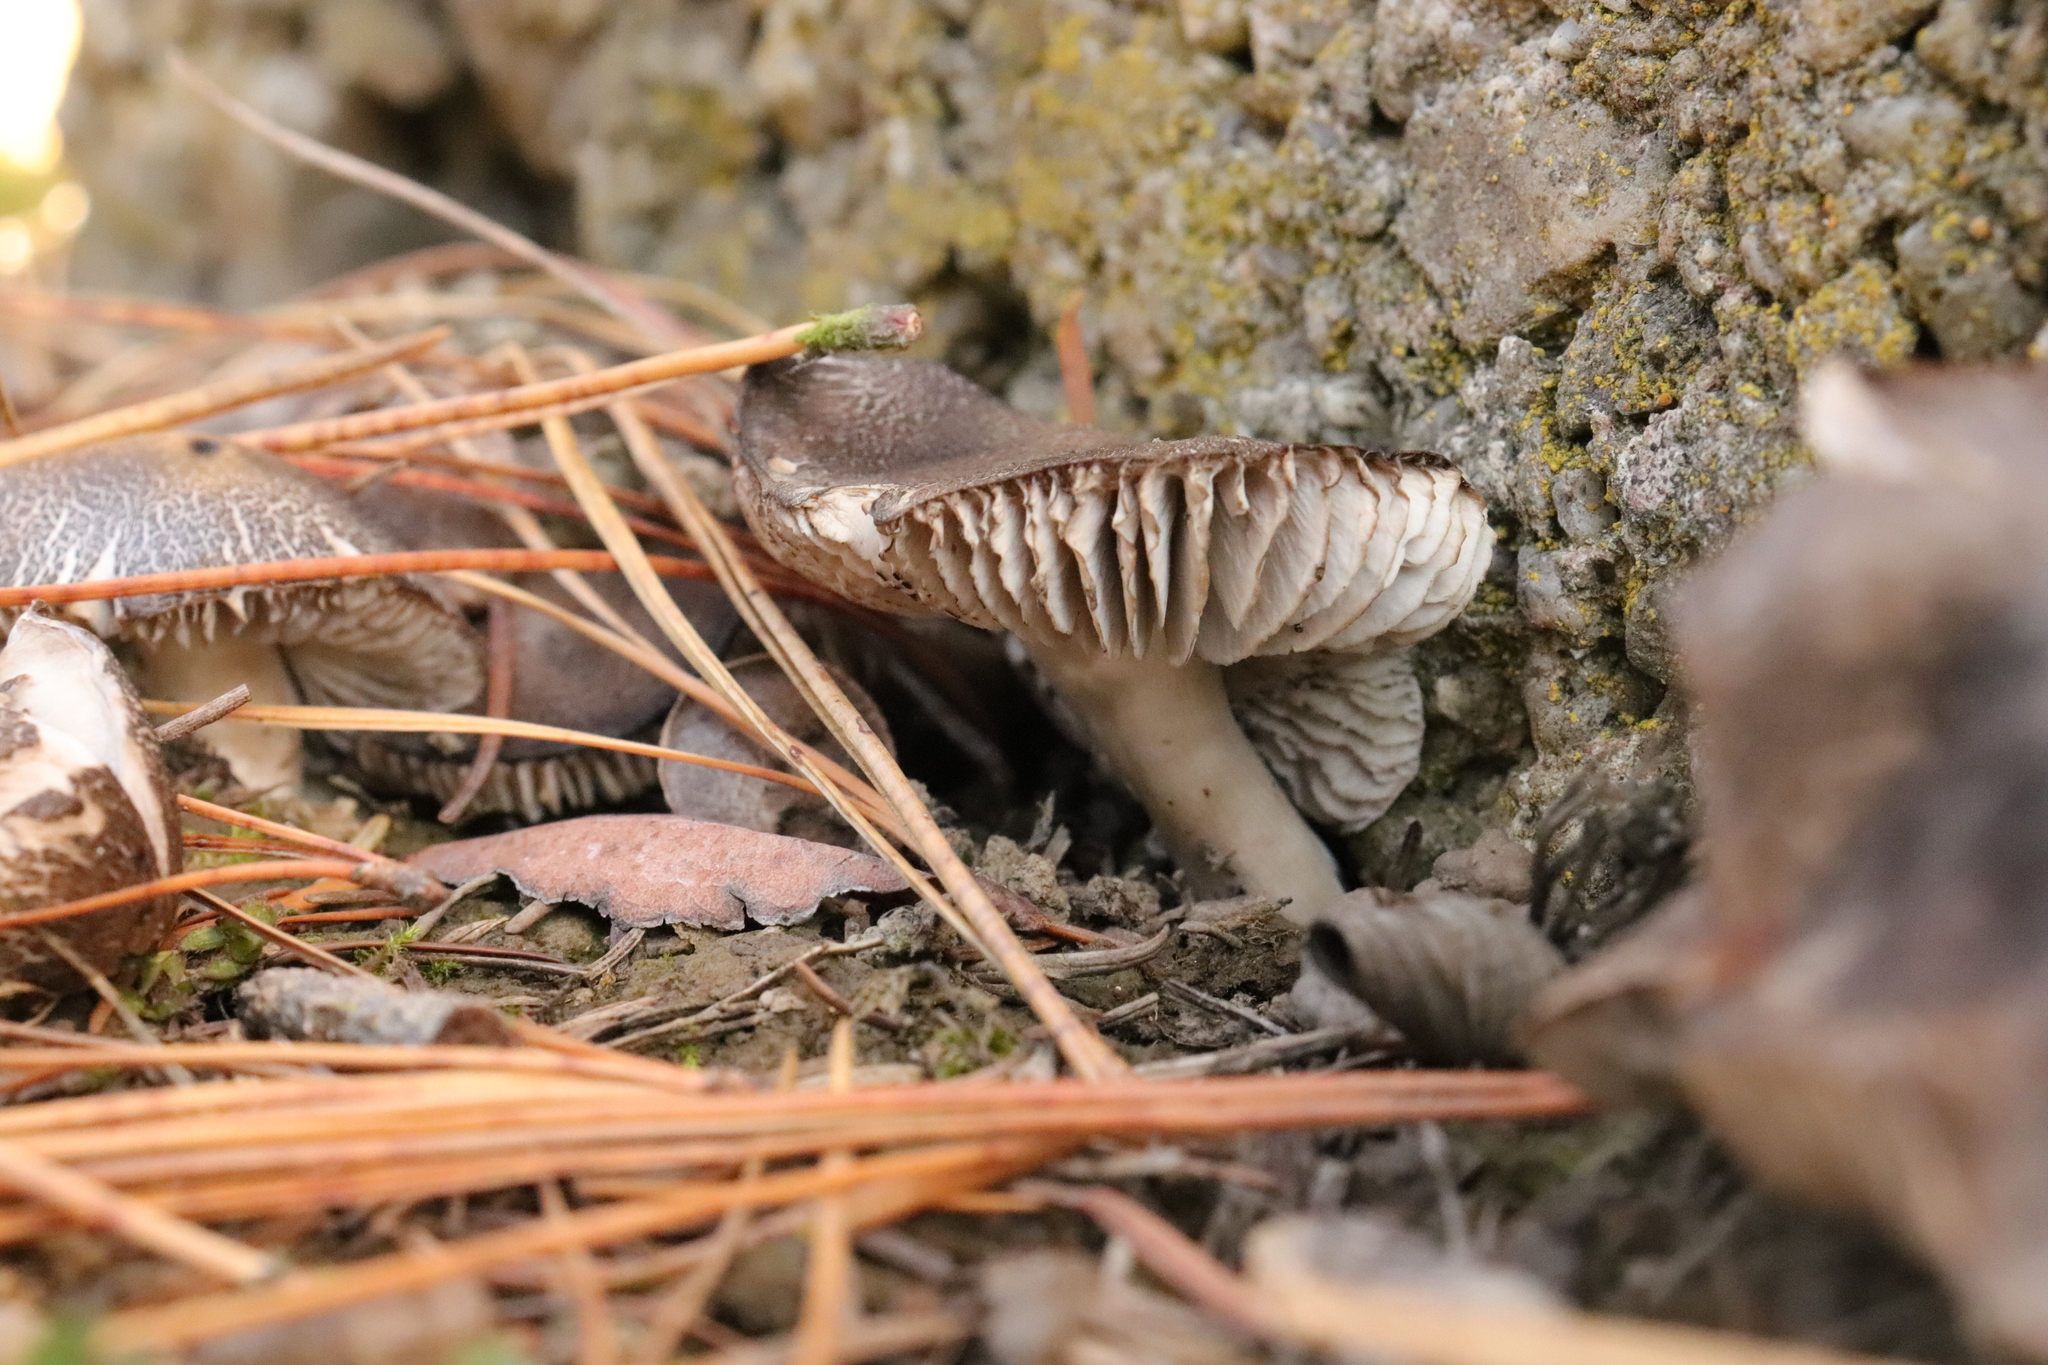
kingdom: Fungi
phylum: Basidiomycota
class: Agaricomycetes
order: Agaricales
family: Tricholomataceae
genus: Tricholoma
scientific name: Tricholoma terreum
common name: Grey knight
